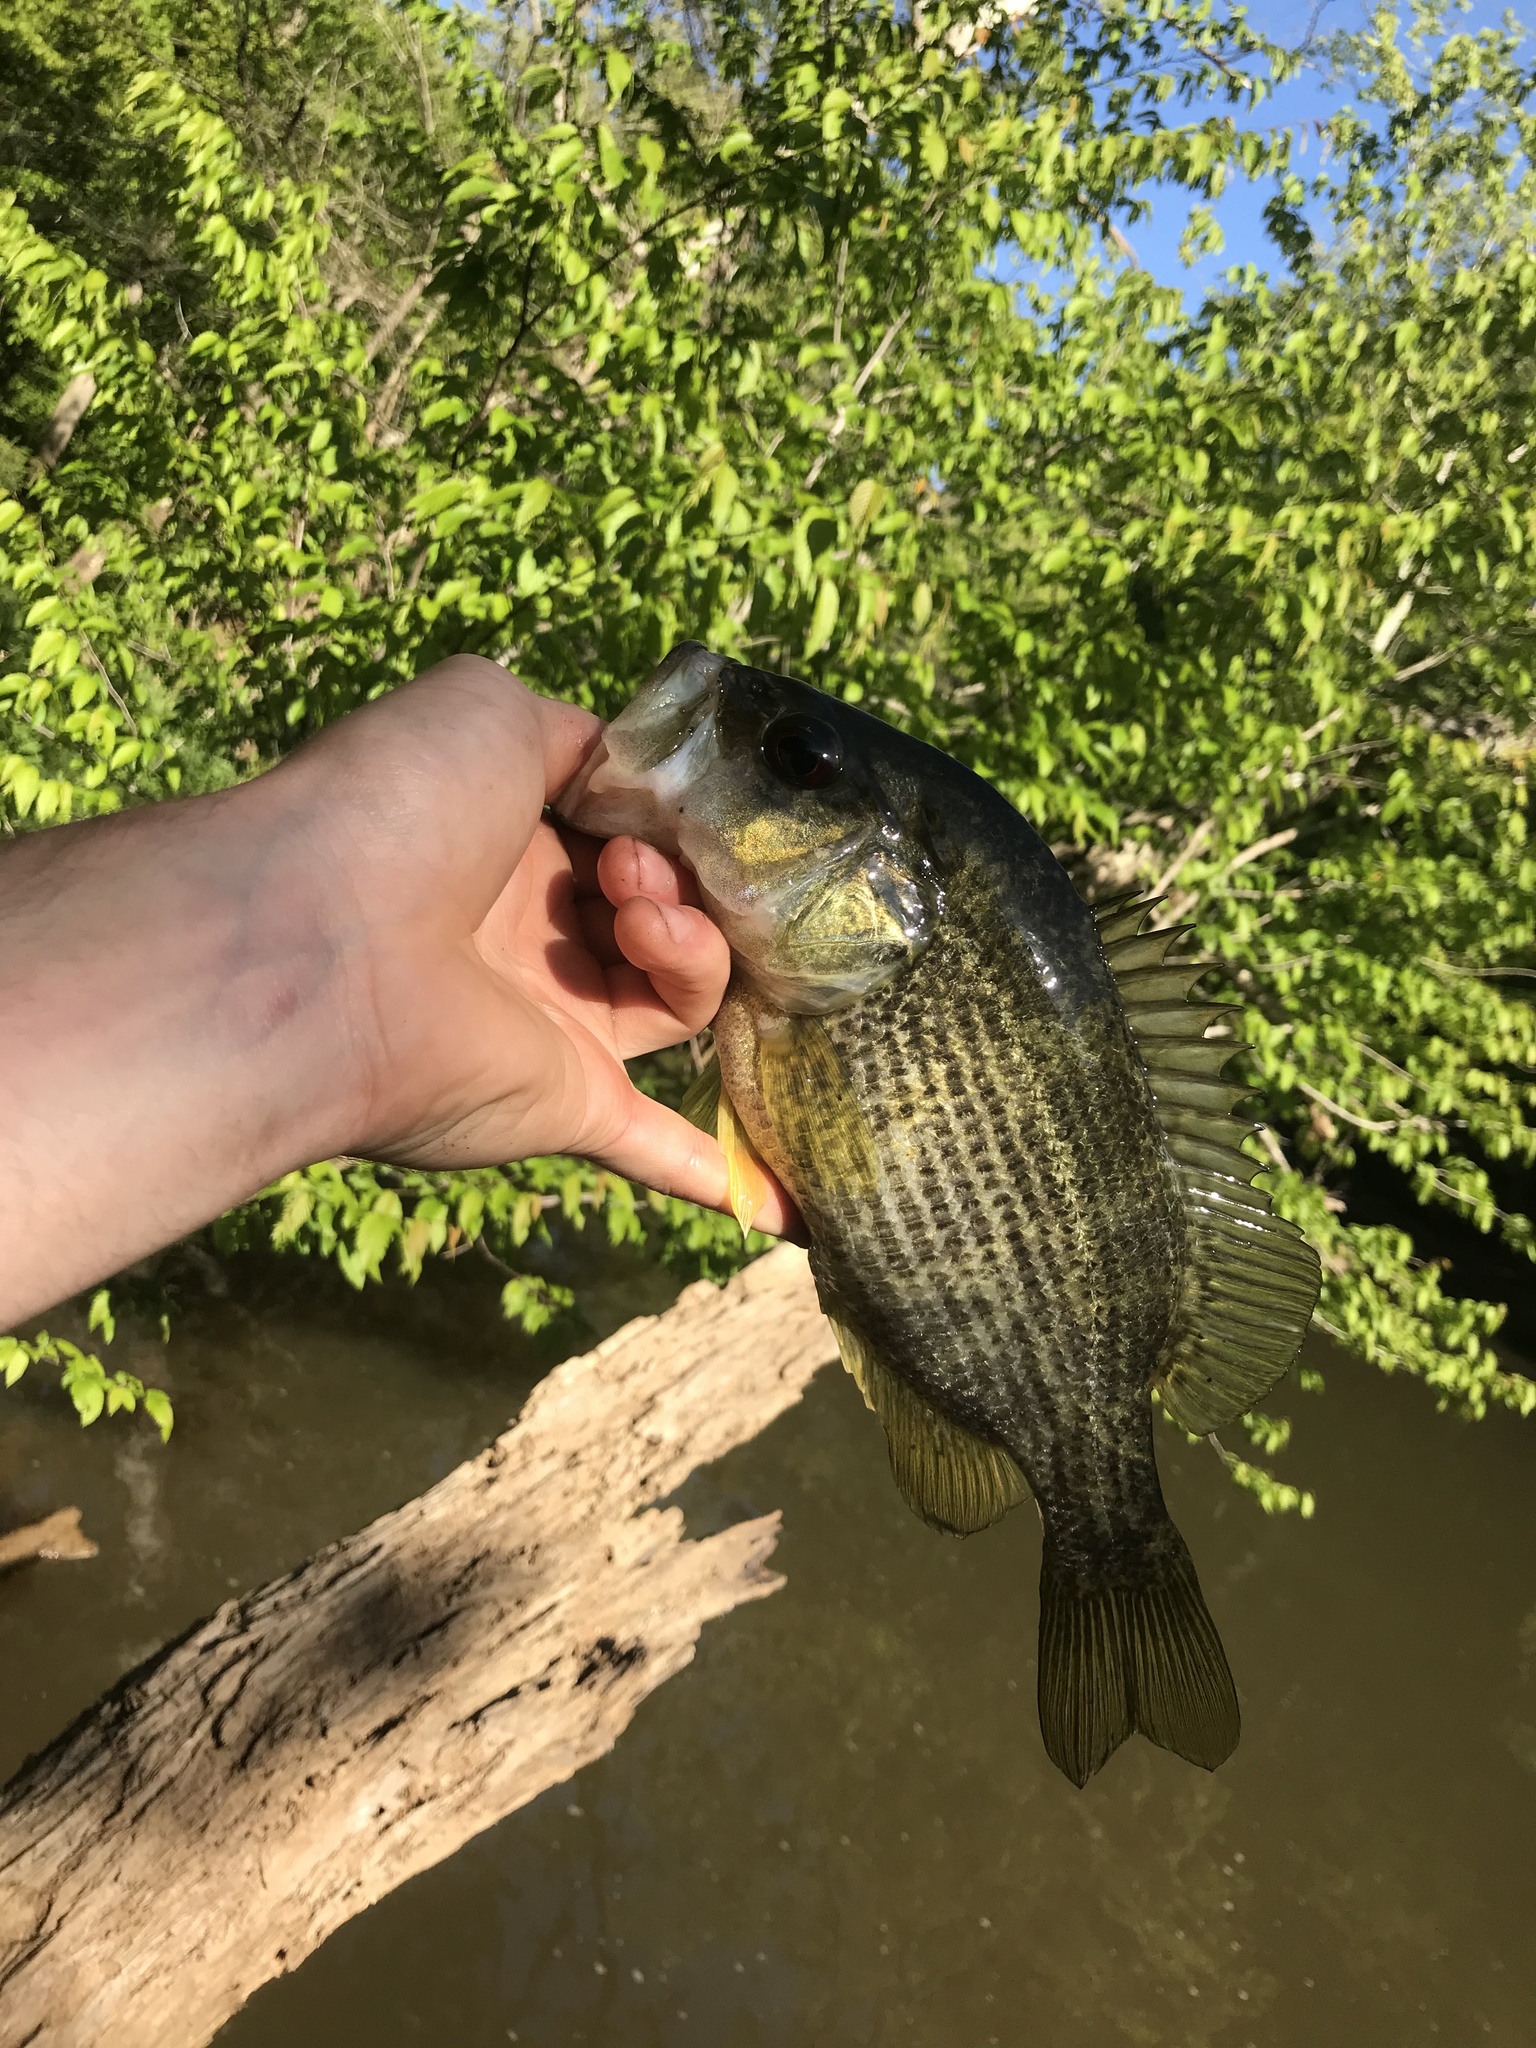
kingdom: Animalia
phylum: Chordata
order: Perciformes
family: Centrarchidae
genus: Ambloplites
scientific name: Ambloplites cavifrons
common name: Roanoke bass
